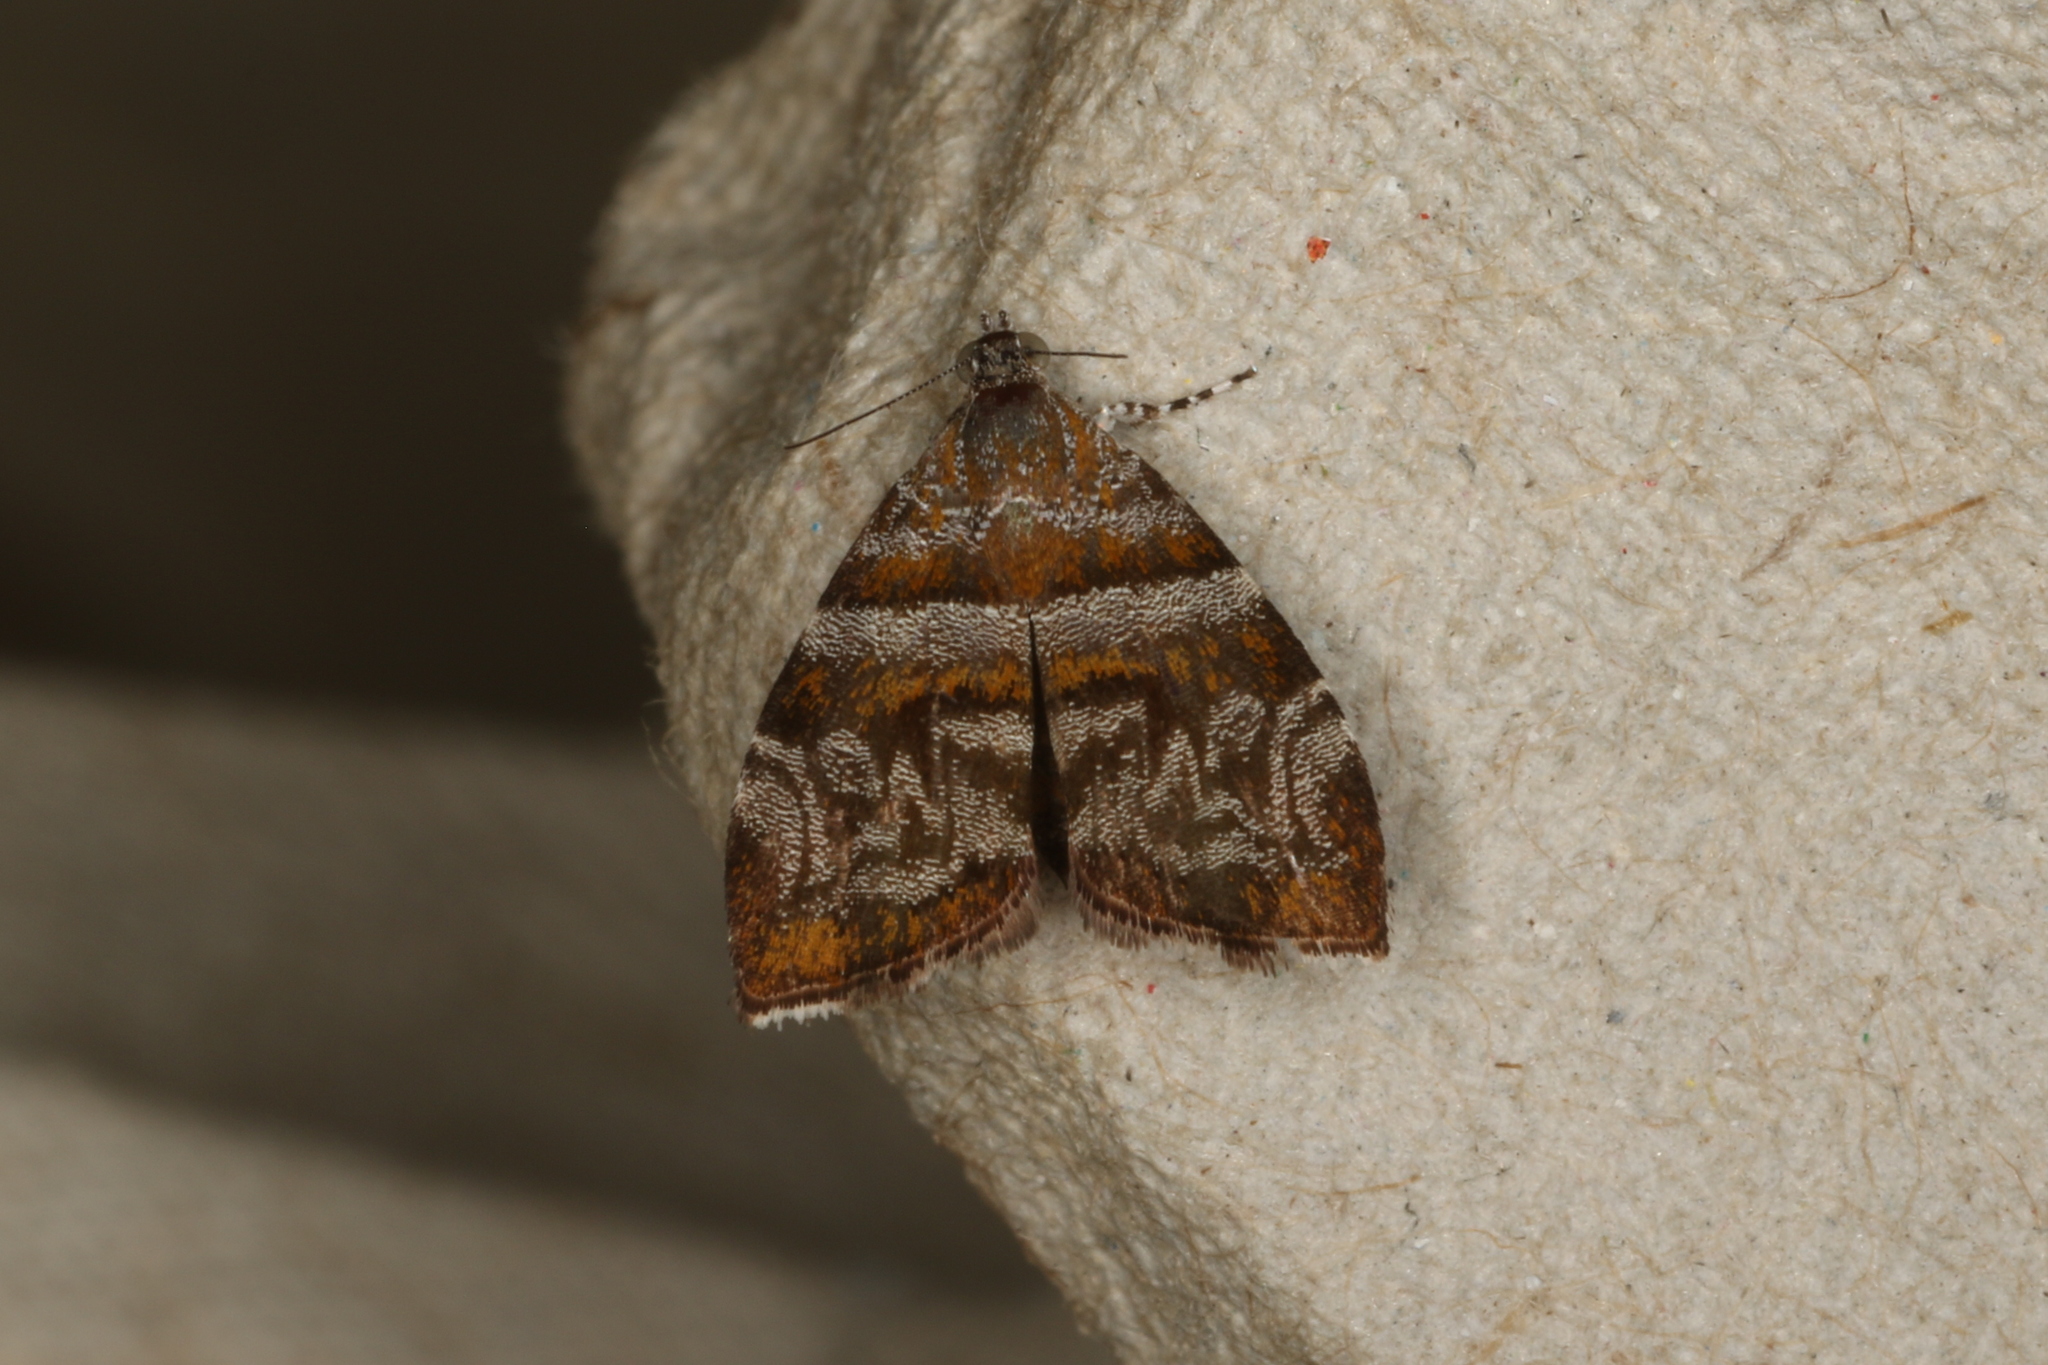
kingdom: Animalia
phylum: Arthropoda
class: Insecta
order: Lepidoptera
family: Choreutidae
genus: Choreutis
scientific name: Choreutis periploca
